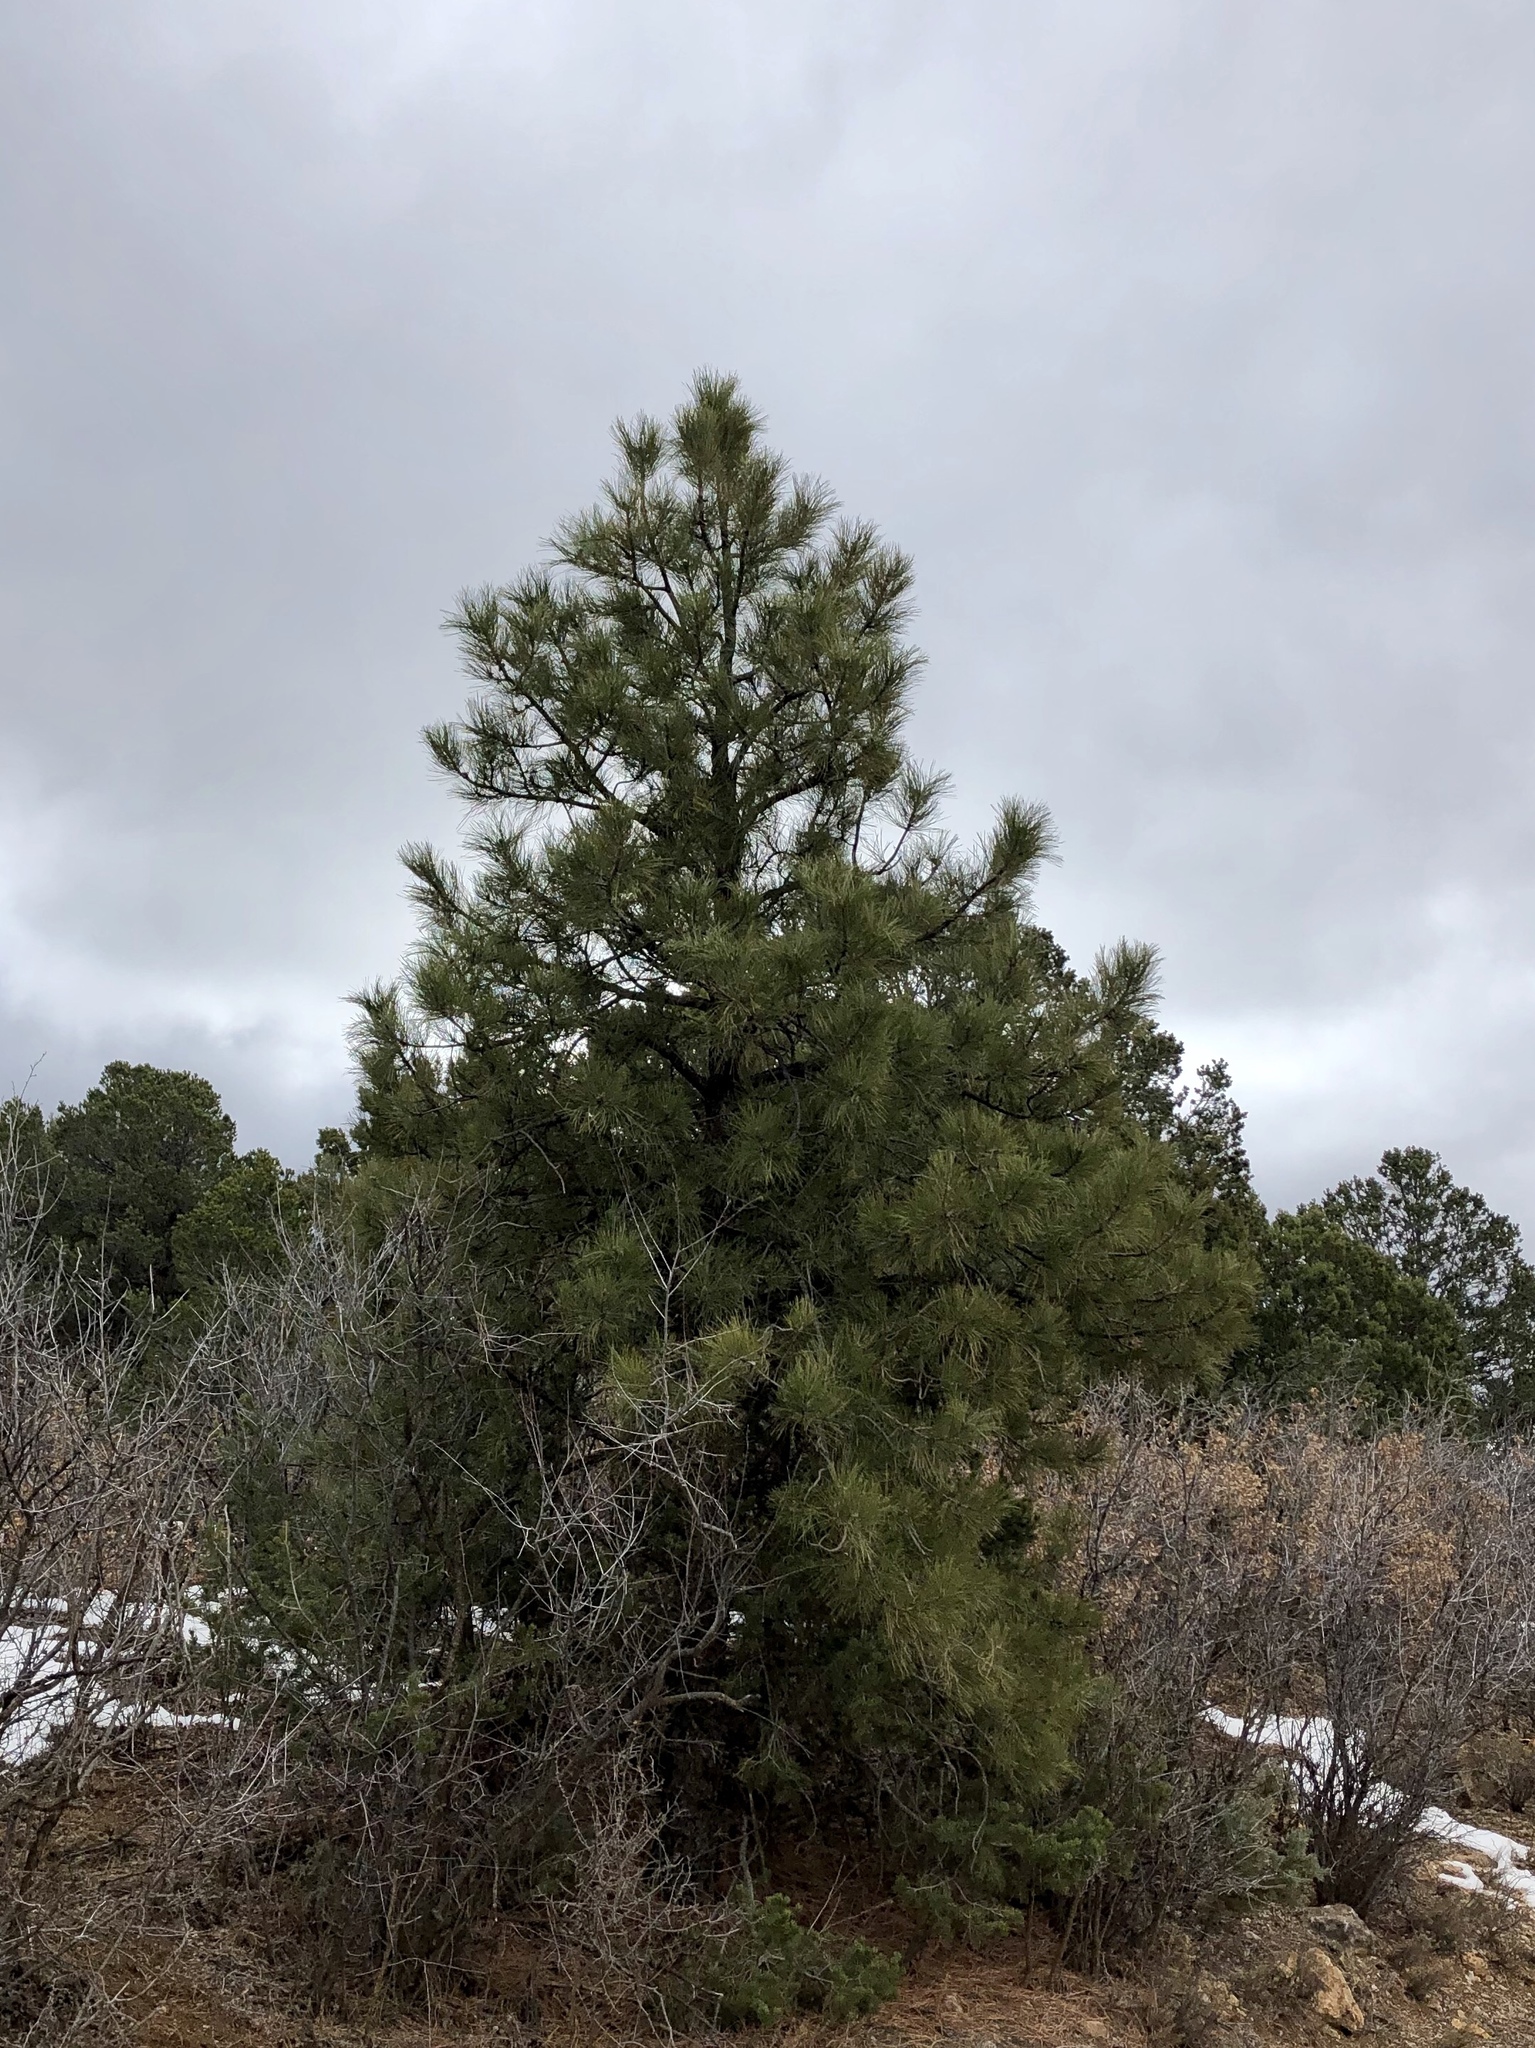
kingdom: Plantae
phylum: Tracheophyta
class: Pinopsida
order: Pinales
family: Pinaceae
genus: Pinus
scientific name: Pinus ponderosa
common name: Western yellow-pine
